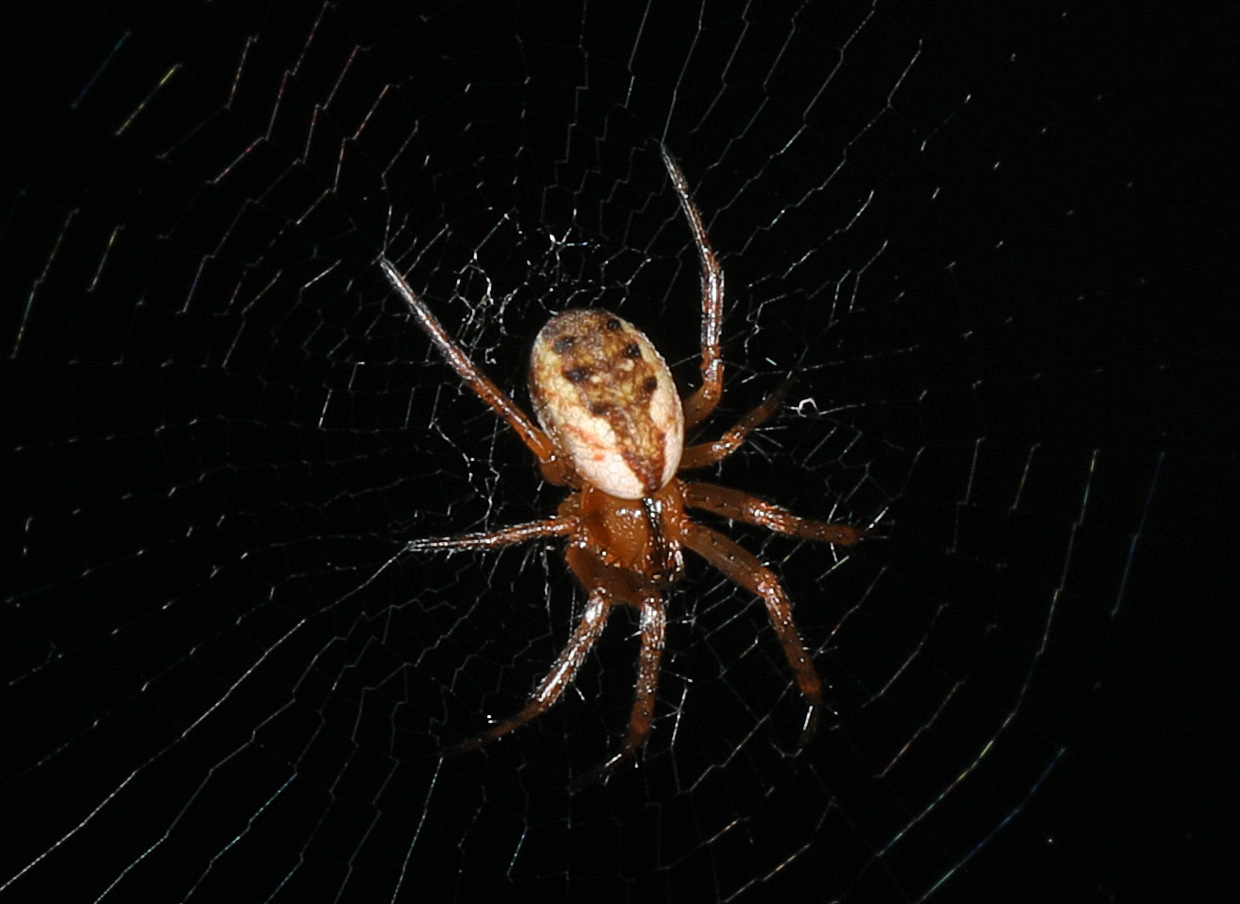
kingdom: Animalia
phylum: Arthropoda
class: Arachnida
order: Araneae
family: Araneidae
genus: Mangora
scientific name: Mangora placida
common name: Tuft-legged orbweaver
